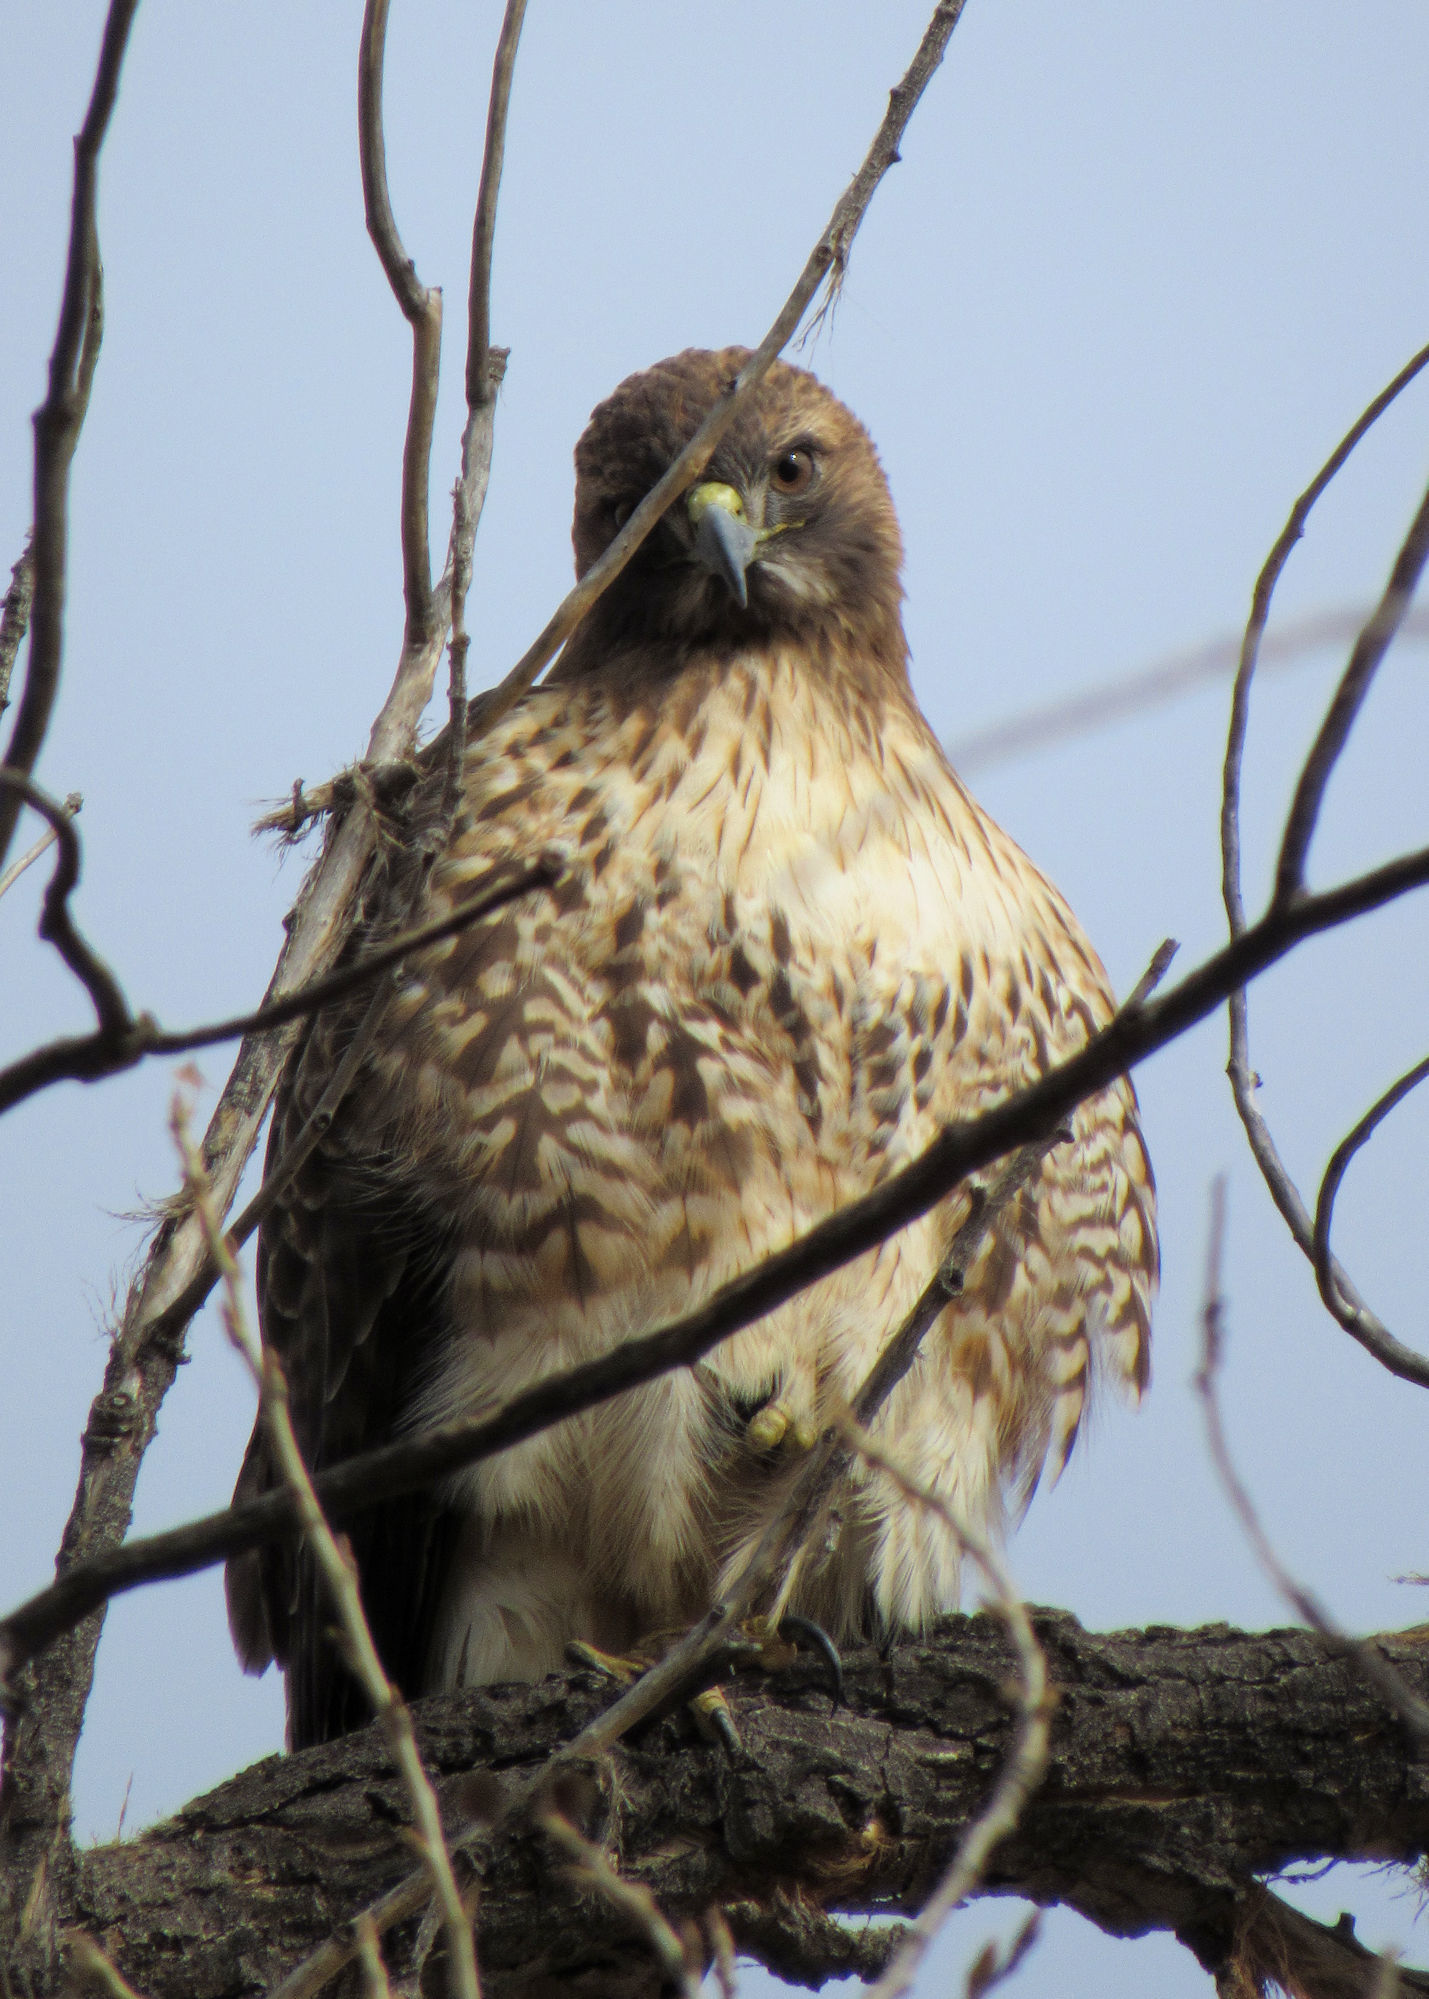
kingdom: Animalia
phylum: Chordata
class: Aves
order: Accipitriformes
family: Accipitridae
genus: Buteo
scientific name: Buteo jamaicensis
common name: Red-tailed hawk
